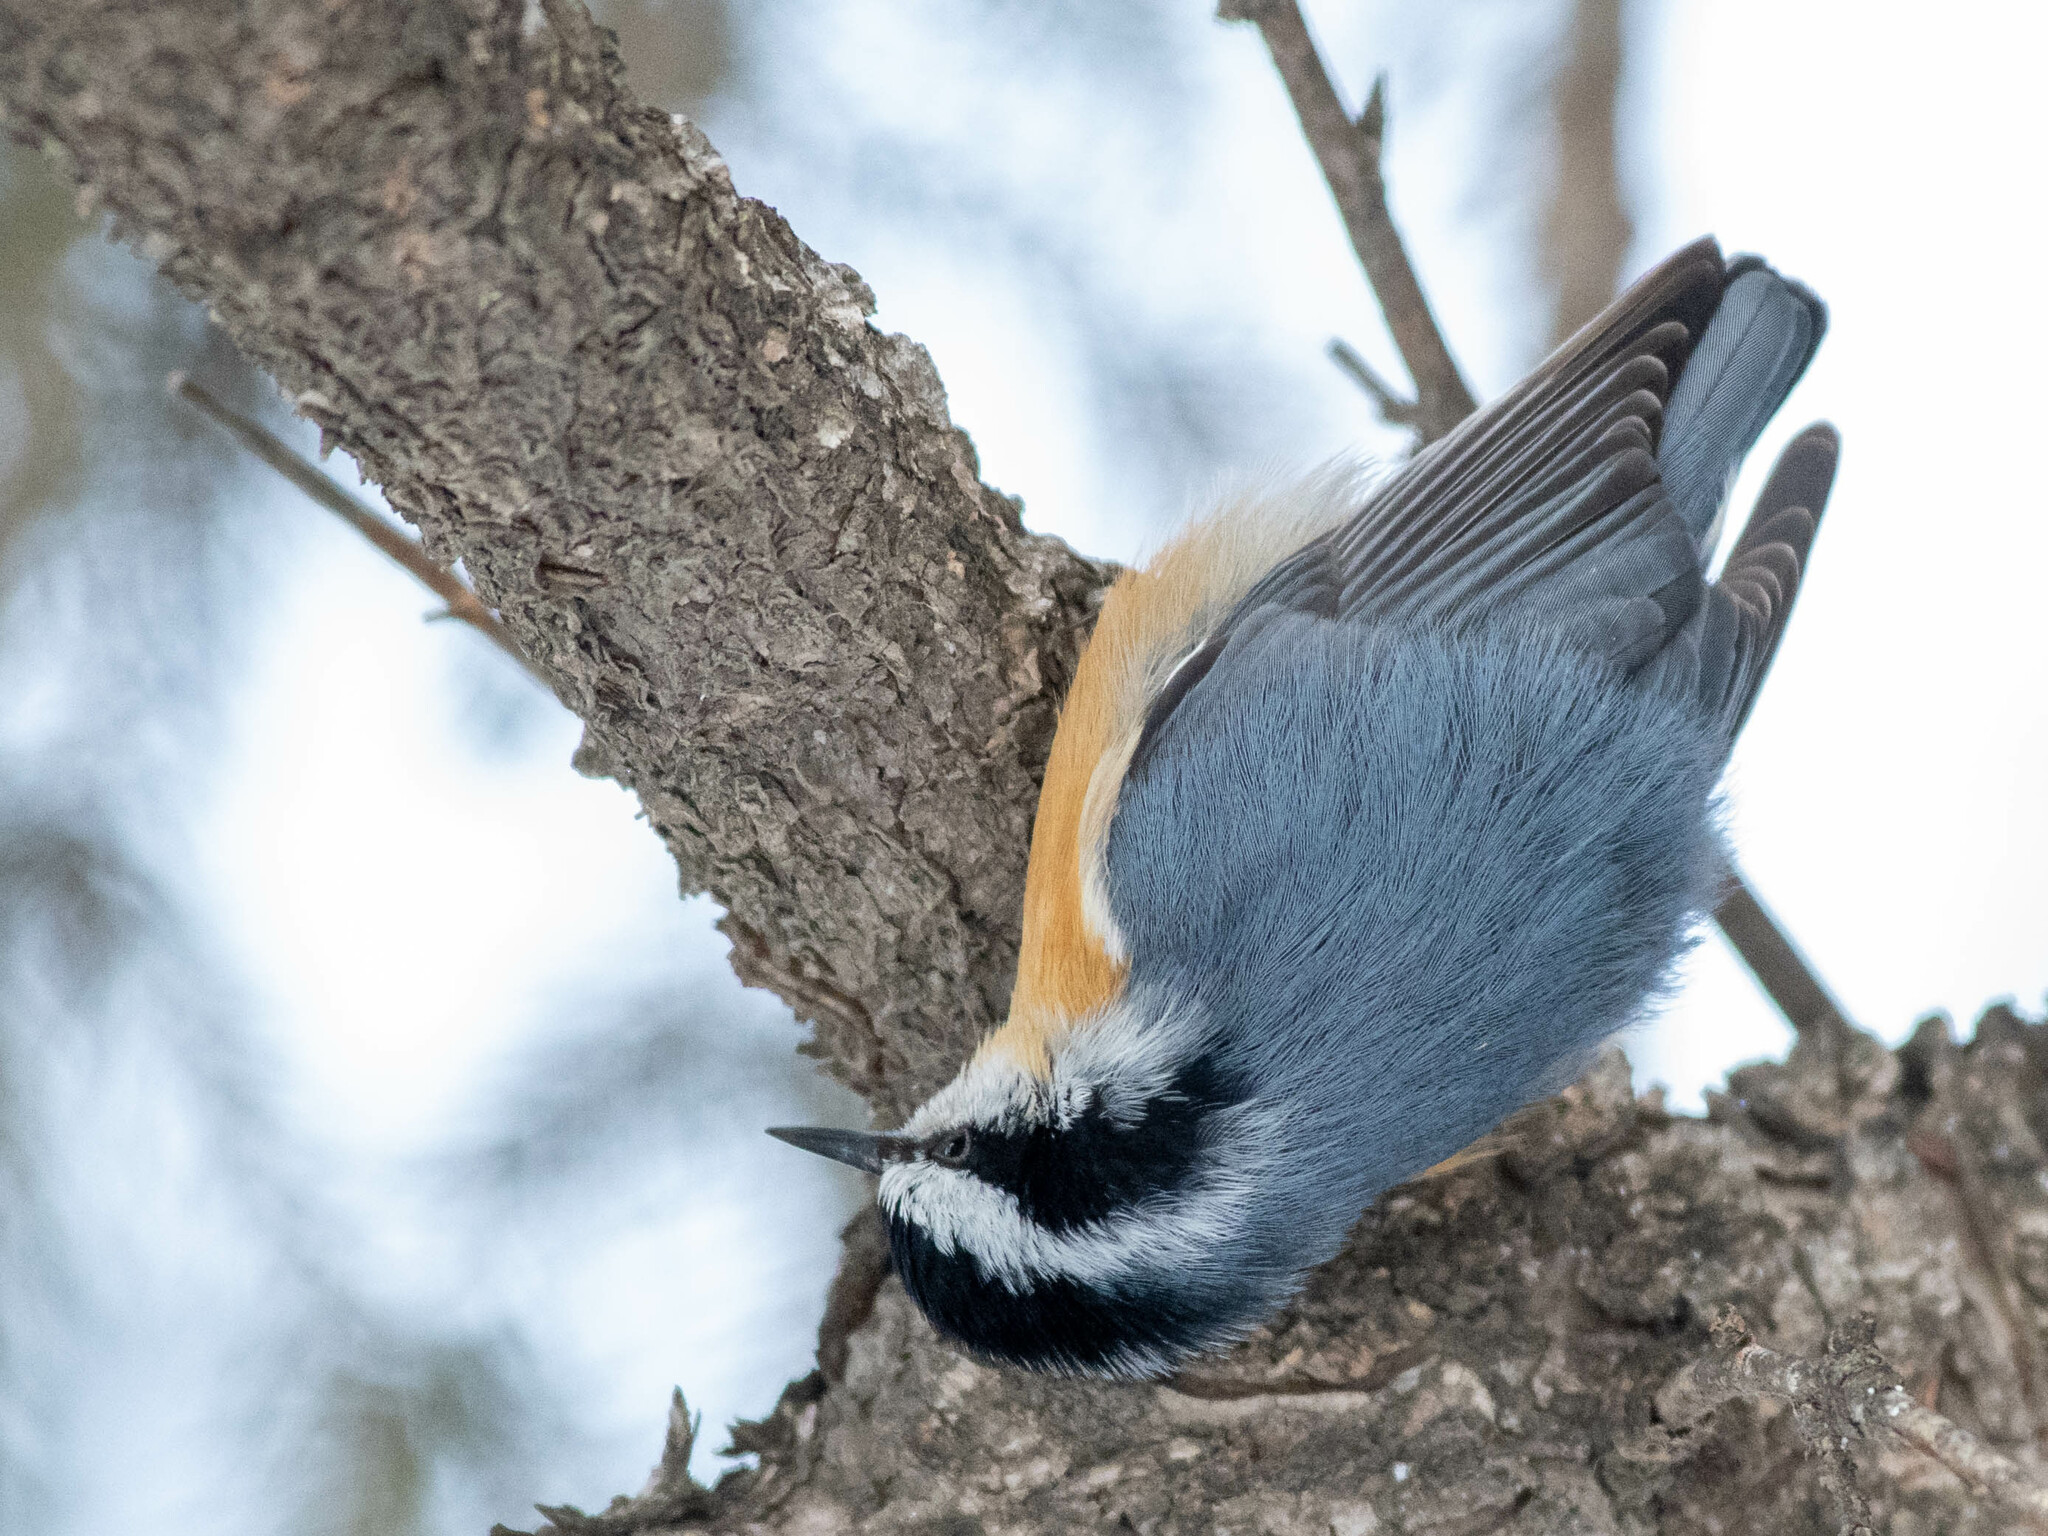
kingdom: Animalia
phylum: Chordata
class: Aves
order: Passeriformes
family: Sittidae
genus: Sitta
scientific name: Sitta canadensis
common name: Red-breasted nuthatch
